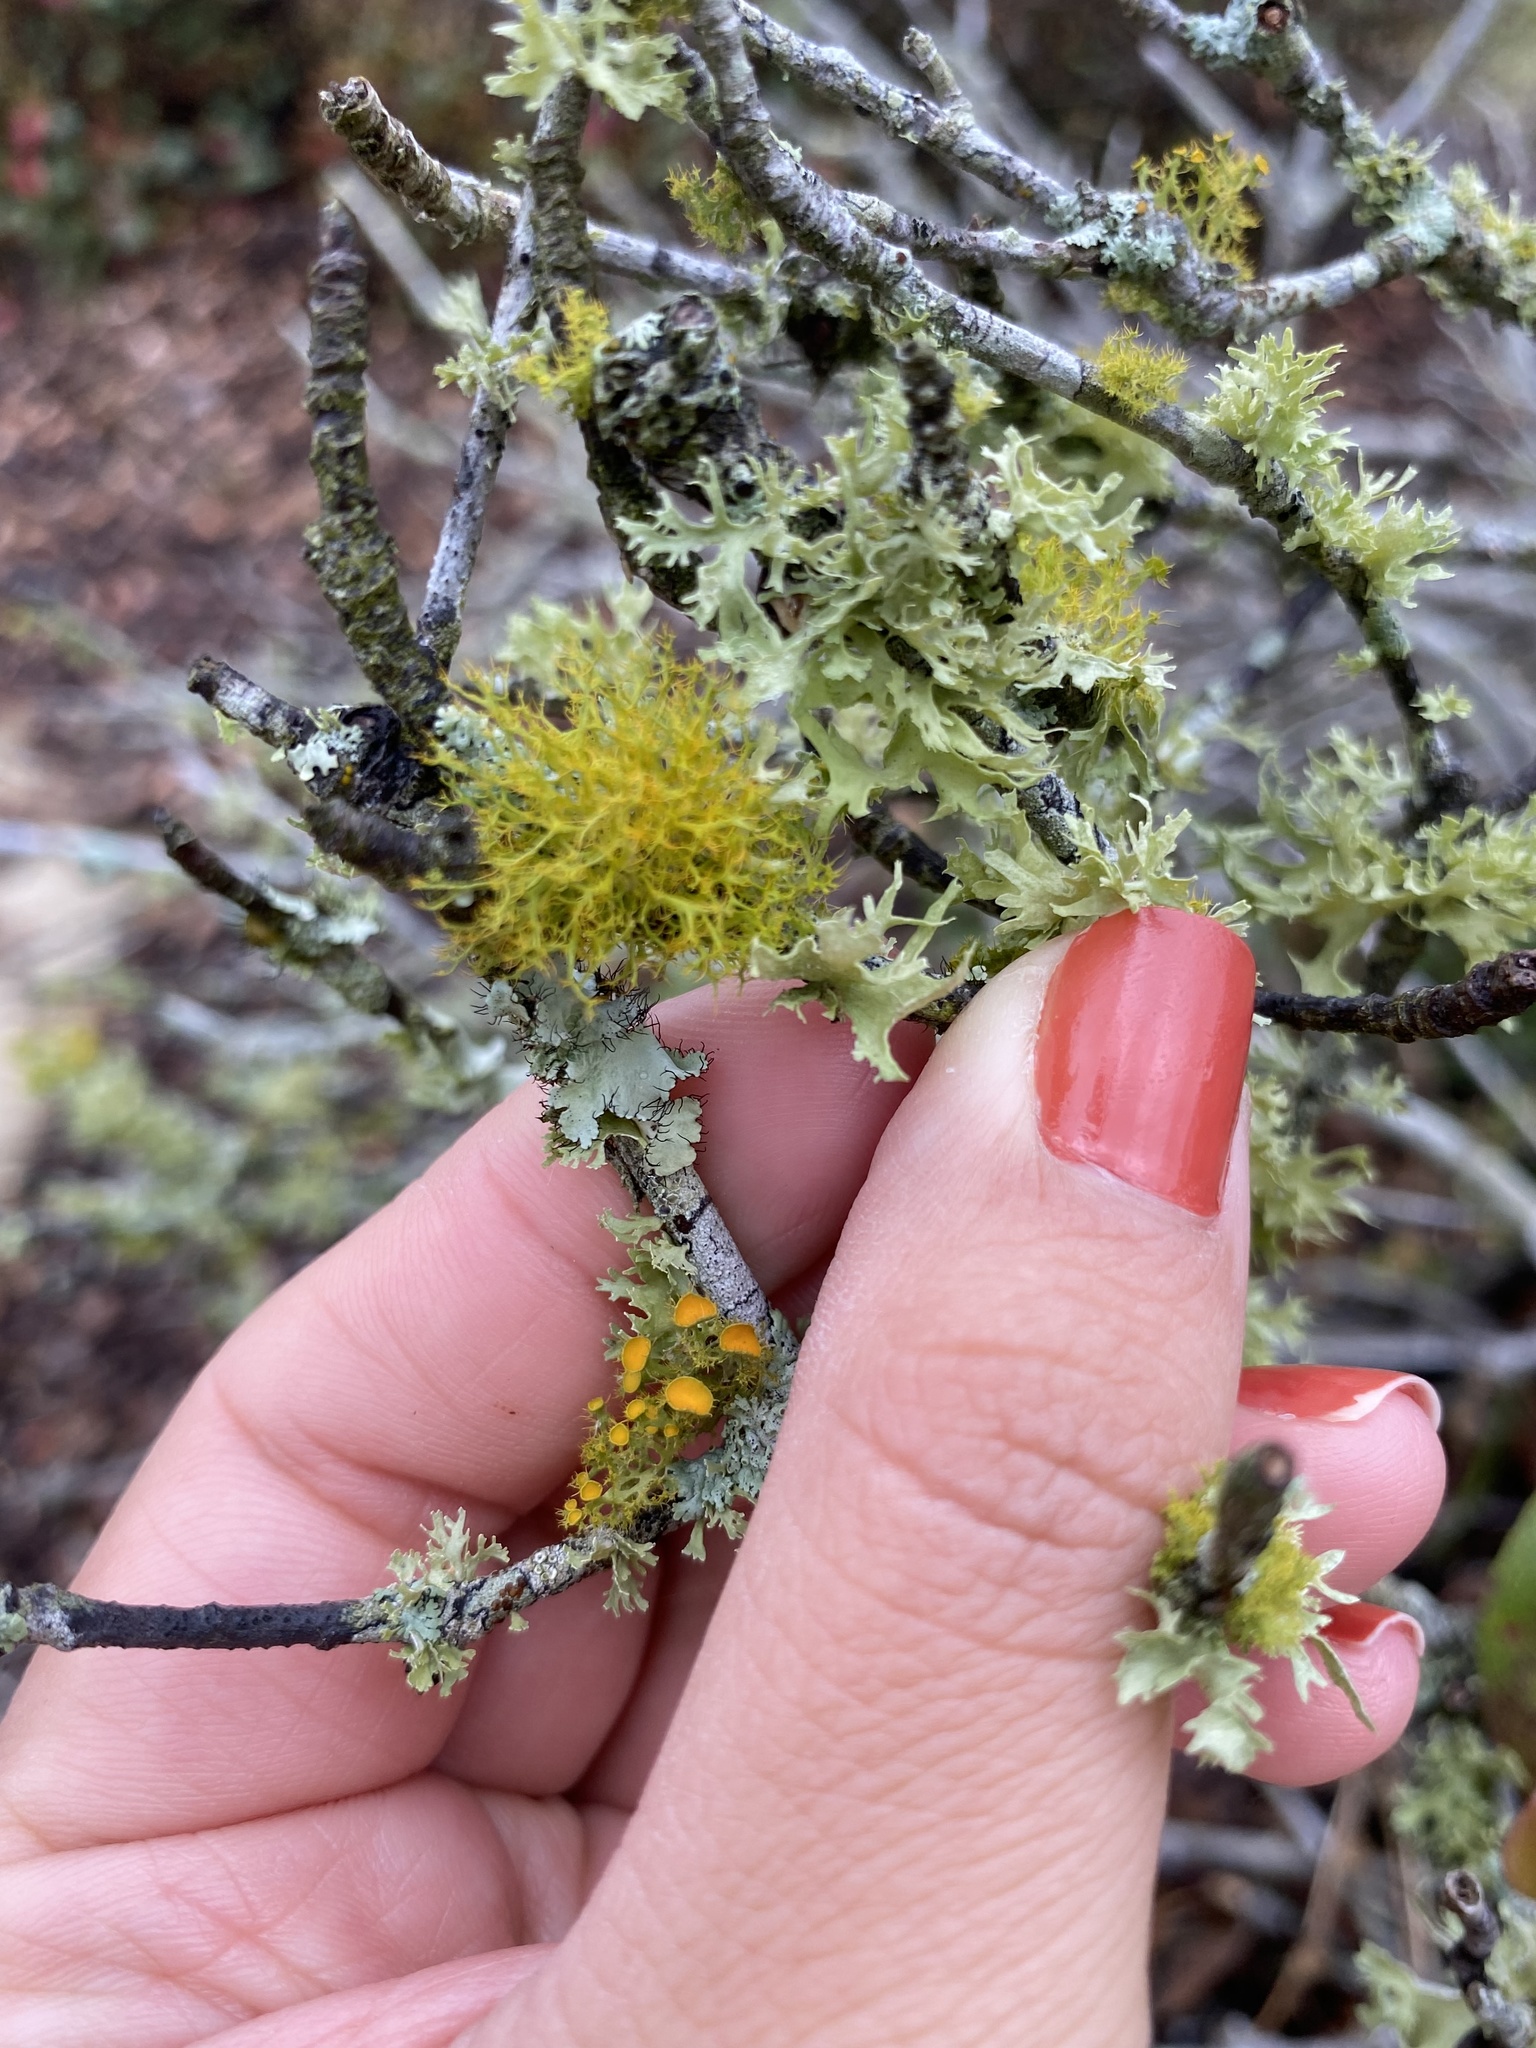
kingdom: Fungi
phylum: Ascomycota
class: Lecanoromycetes
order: Teloschistales
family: Teloschistaceae
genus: Teloschistes
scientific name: Teloschistes exilis
